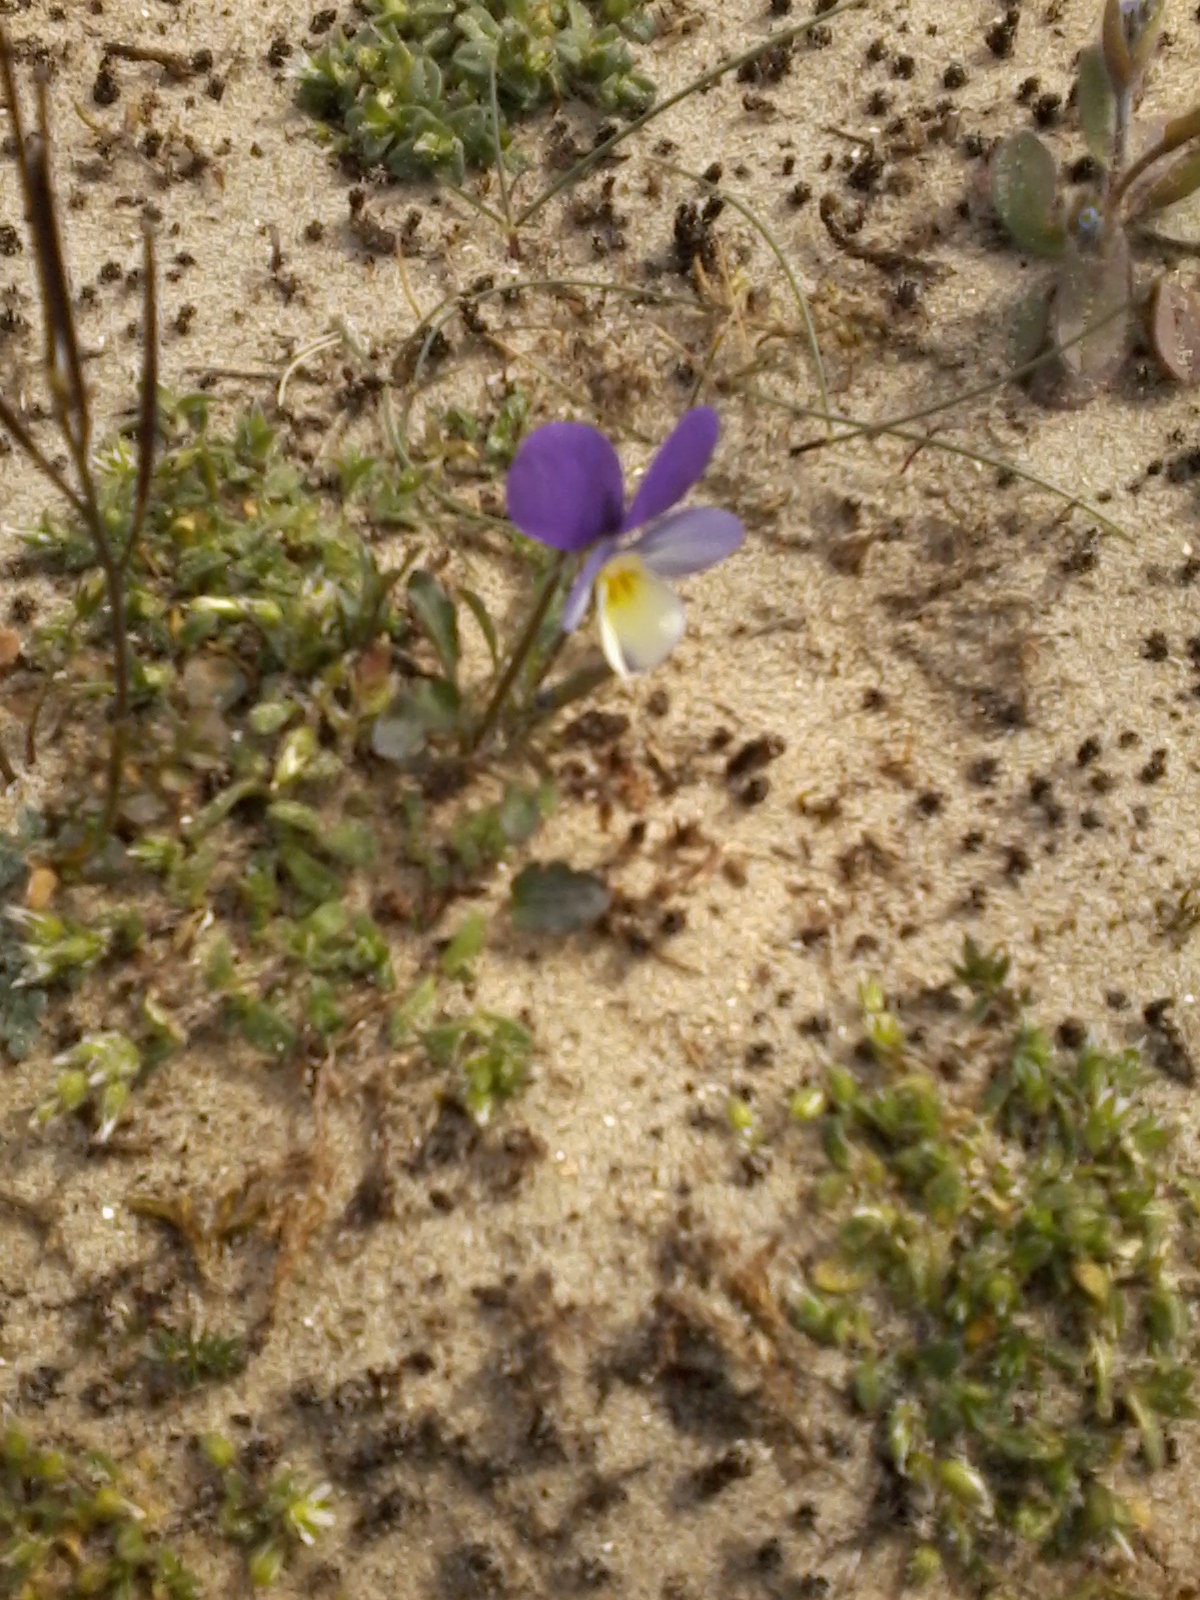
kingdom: Plantae
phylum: Tracheophyta
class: Magnoliopsida
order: Malpighiales
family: Violaceae
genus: Viola
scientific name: Viola tricolor
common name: Pansy
